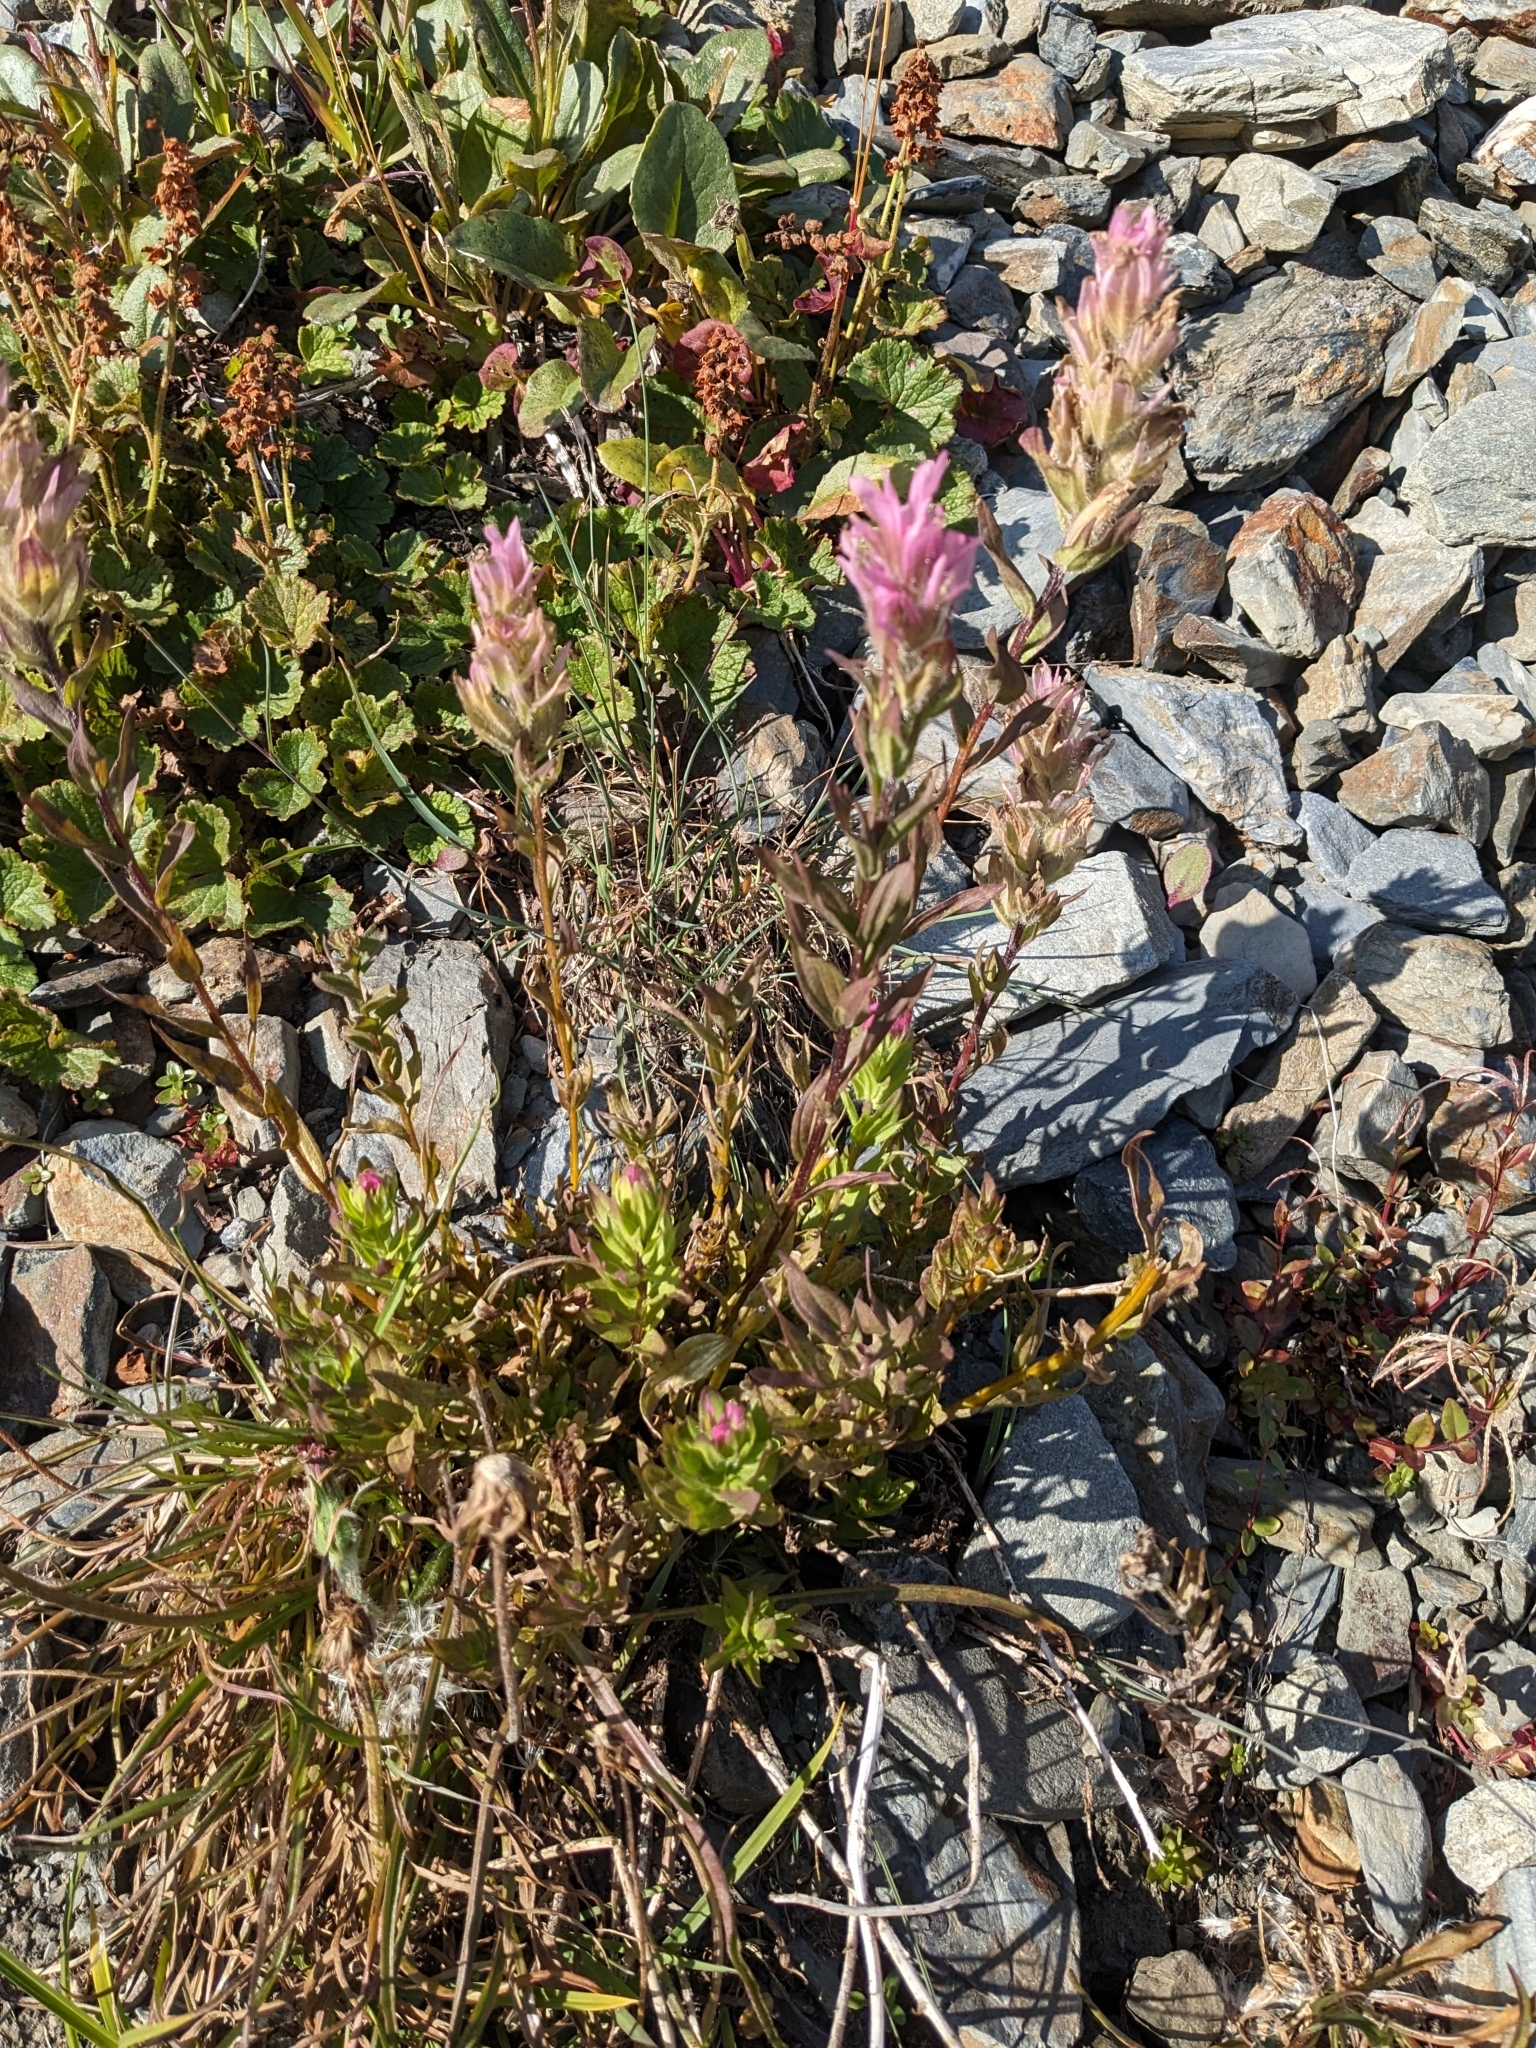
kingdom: Plantae
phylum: Tracheophyta
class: Magnoliopsida
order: Lamiales
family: Orobanchaceae
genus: Castilleja
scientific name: Castilleja parviflora
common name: Mountain paintbrush
